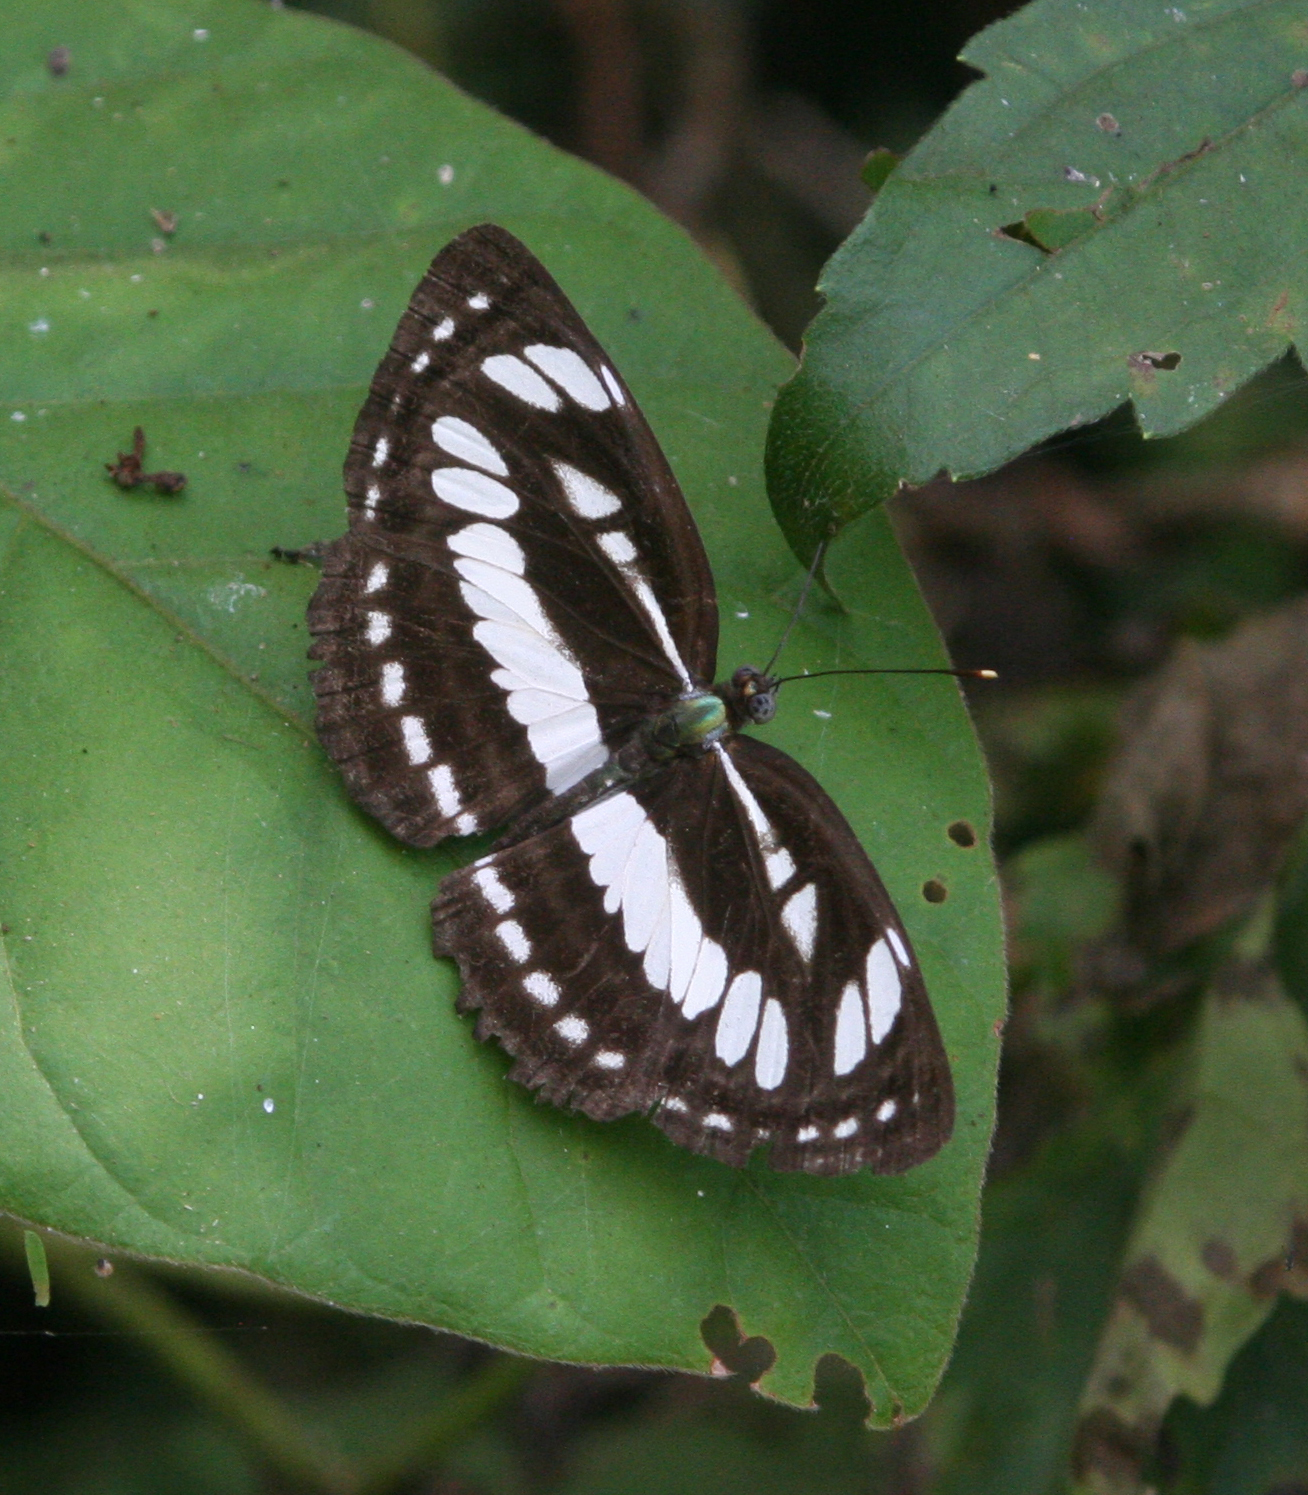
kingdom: Animalia
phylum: Arthropoda
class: Insecta
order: Lepidoptera
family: Nymphalidae
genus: Neptis
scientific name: Neptis hylas
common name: Common sailer
